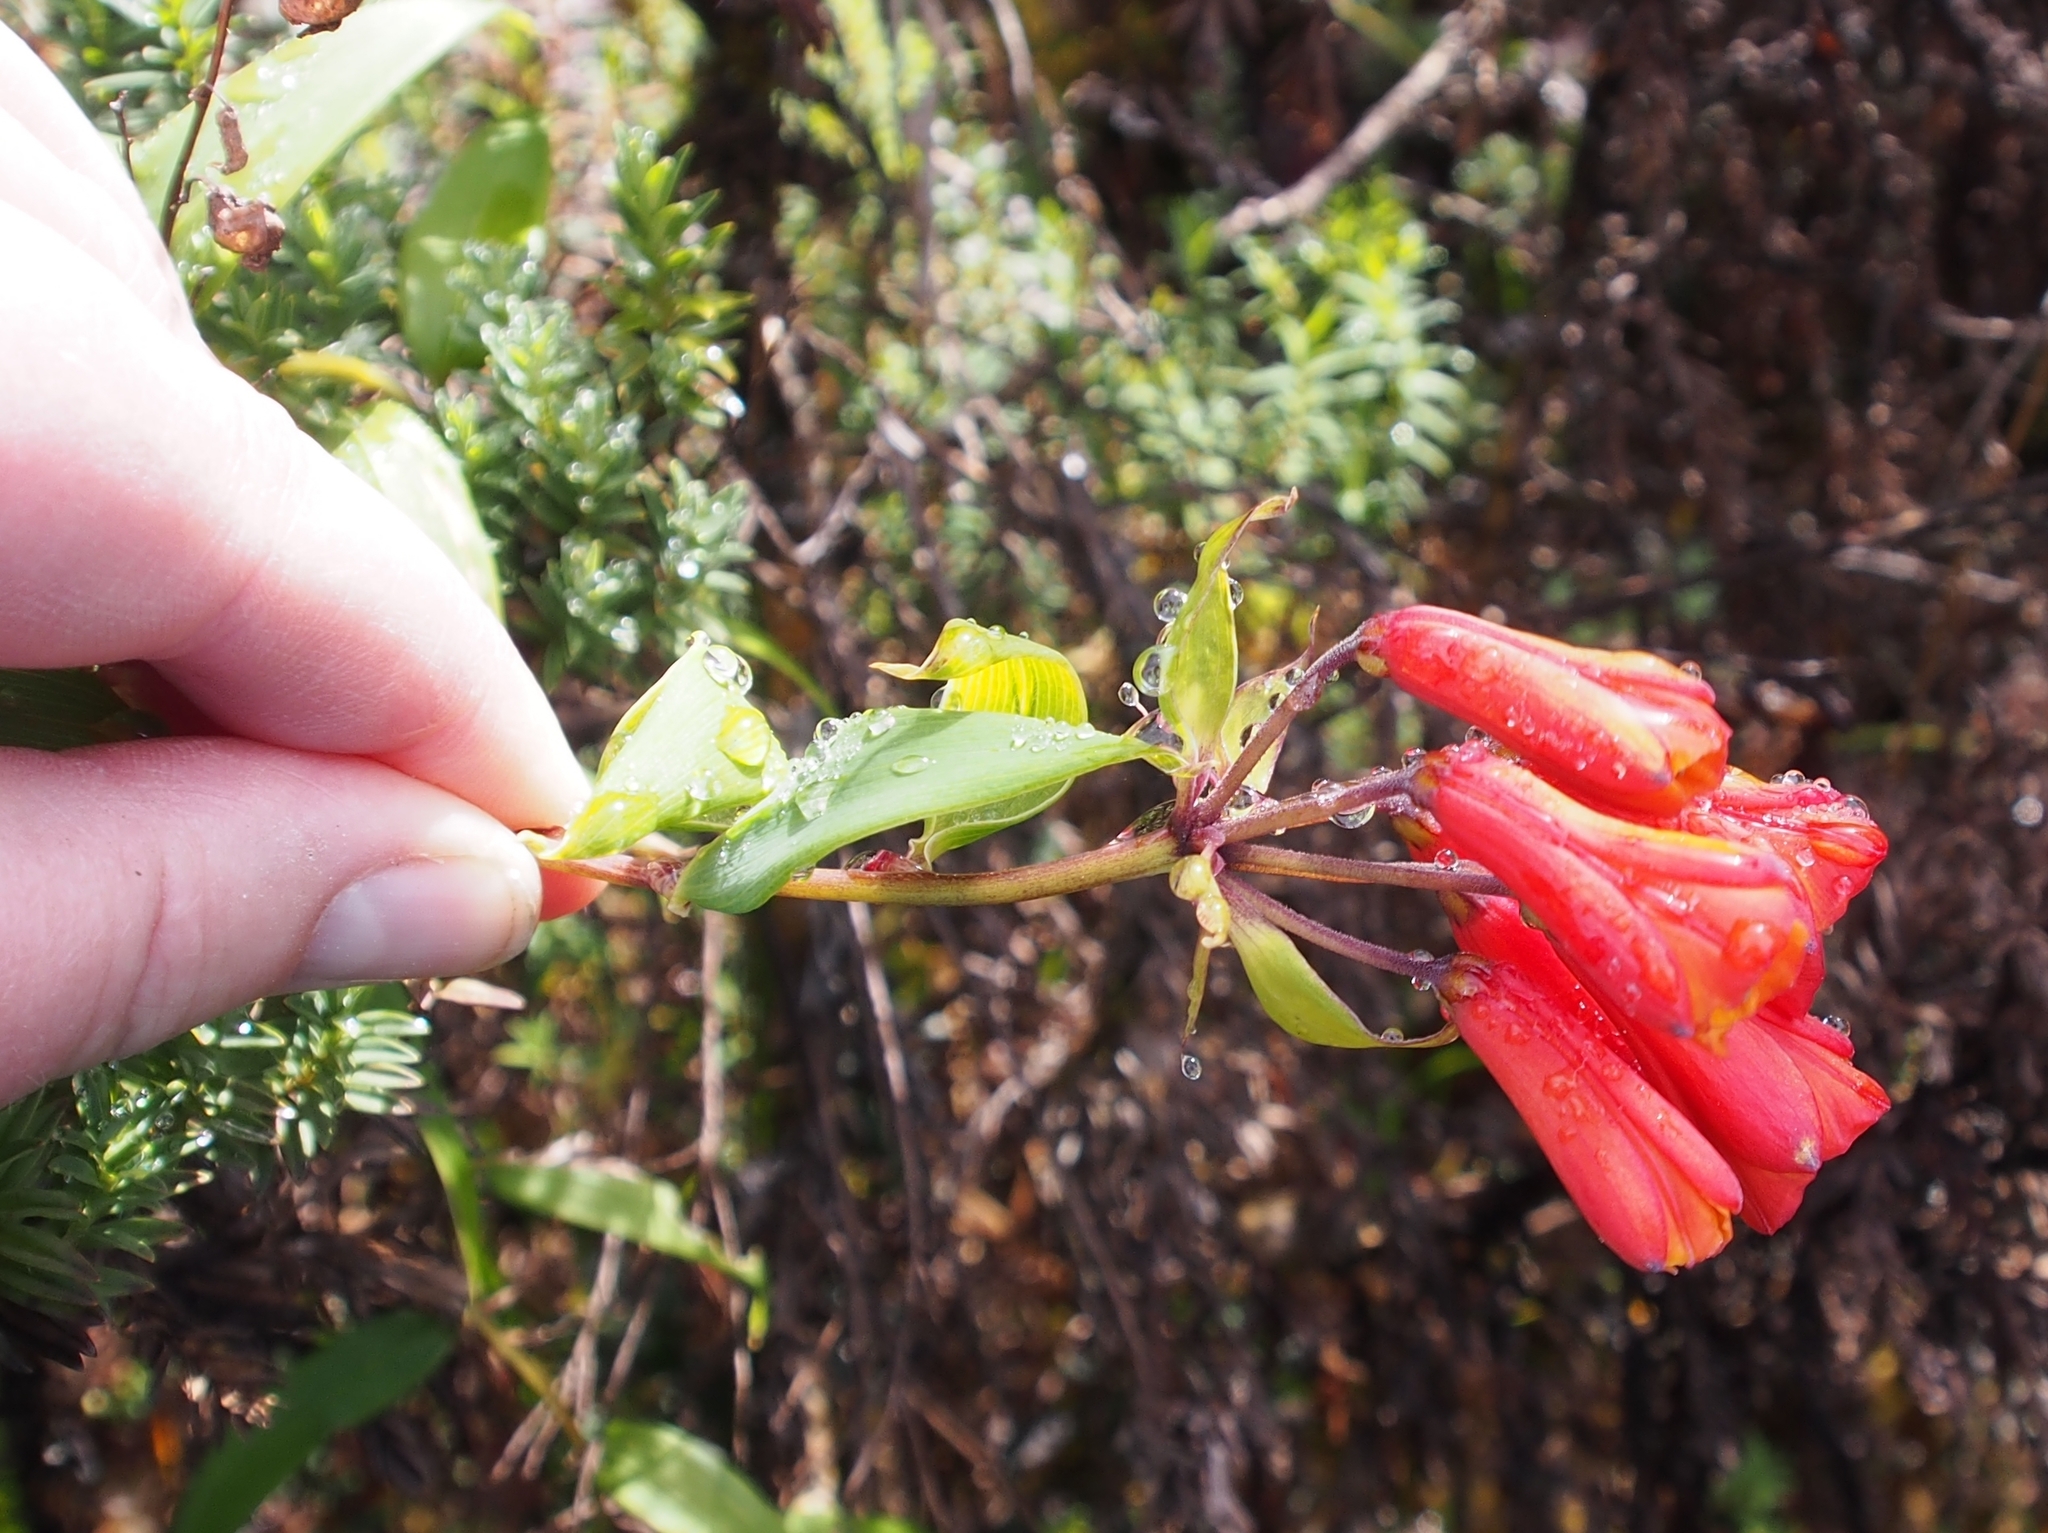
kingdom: Plantae
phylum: Tracheophyta
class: Liliopsida
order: Liliales
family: Alstroemeriaceae
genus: Bomarea
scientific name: Bomarea acutifolia
